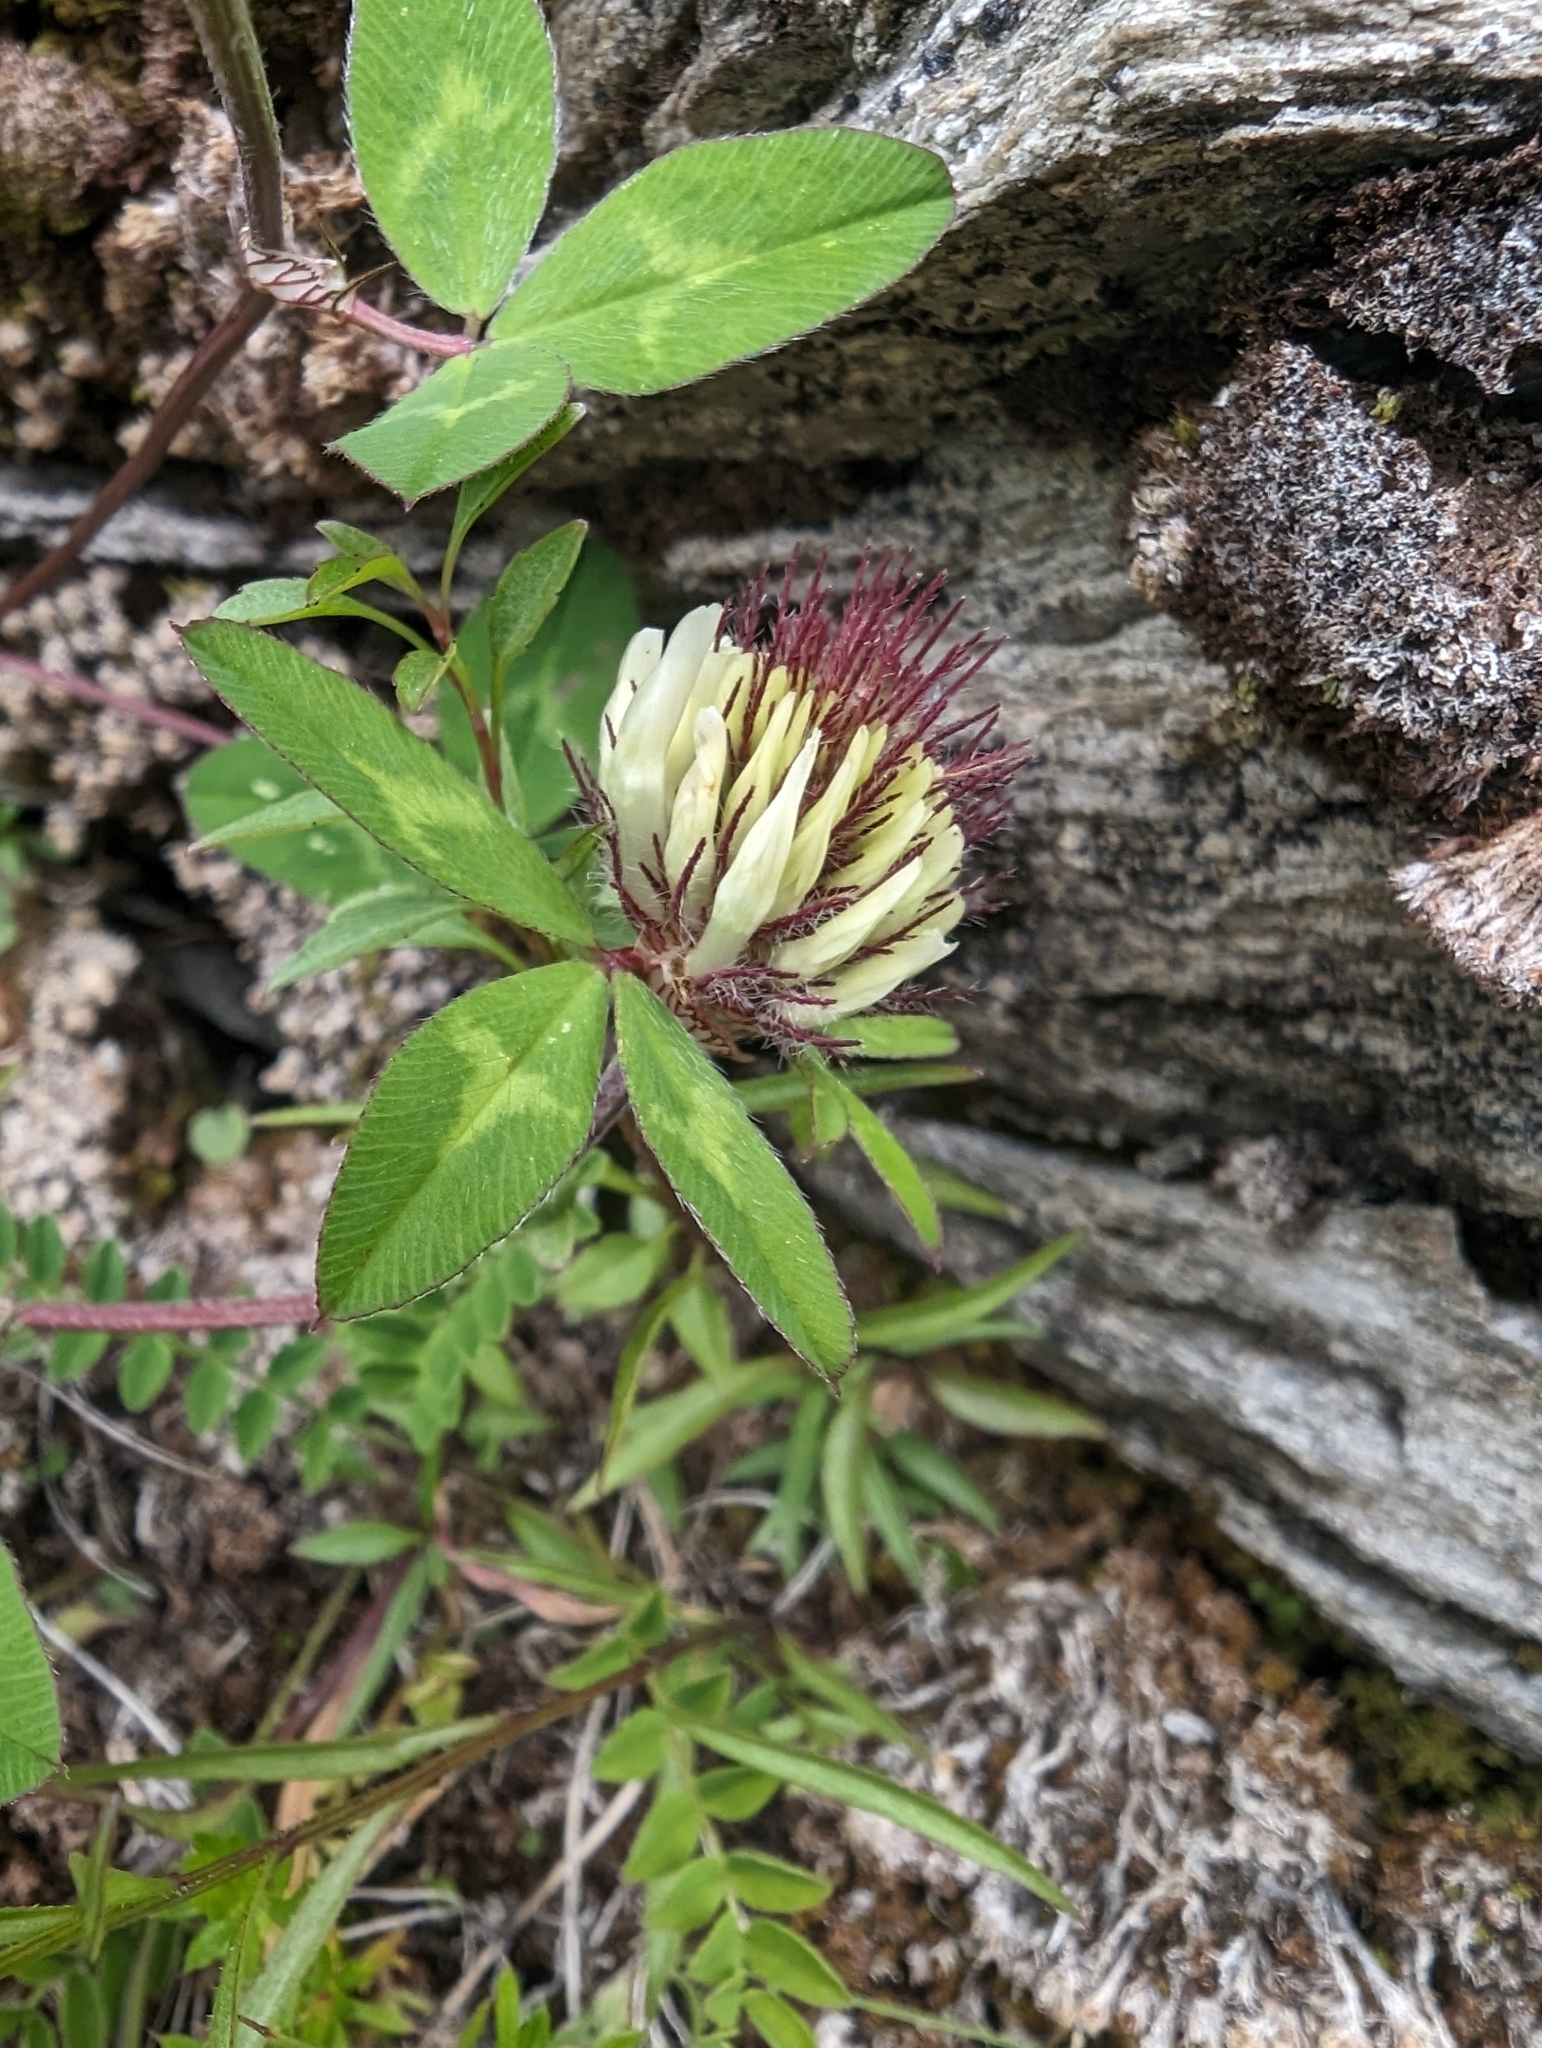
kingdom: Plantae
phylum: Tracheophyta
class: Magnoliopsida
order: Fabales
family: Fabaceae
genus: Trifolium
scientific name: Trifolium pratense
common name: Red clover
